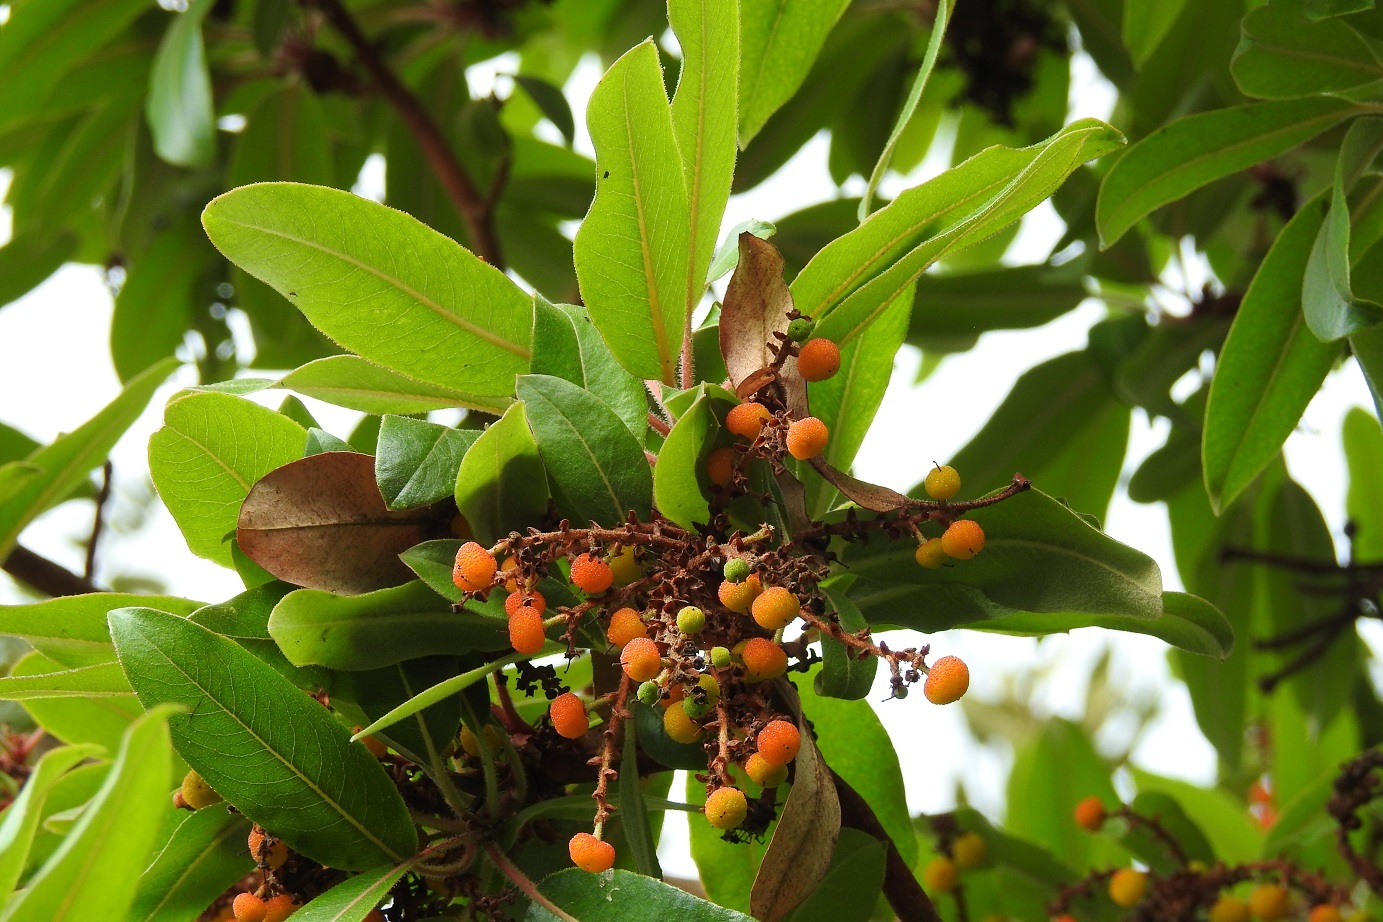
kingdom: Plantae
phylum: Tracheophyta
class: Magnoliopsida
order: Ericales
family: Ericaceae
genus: Arbutus
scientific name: Arbutus xalapensis
